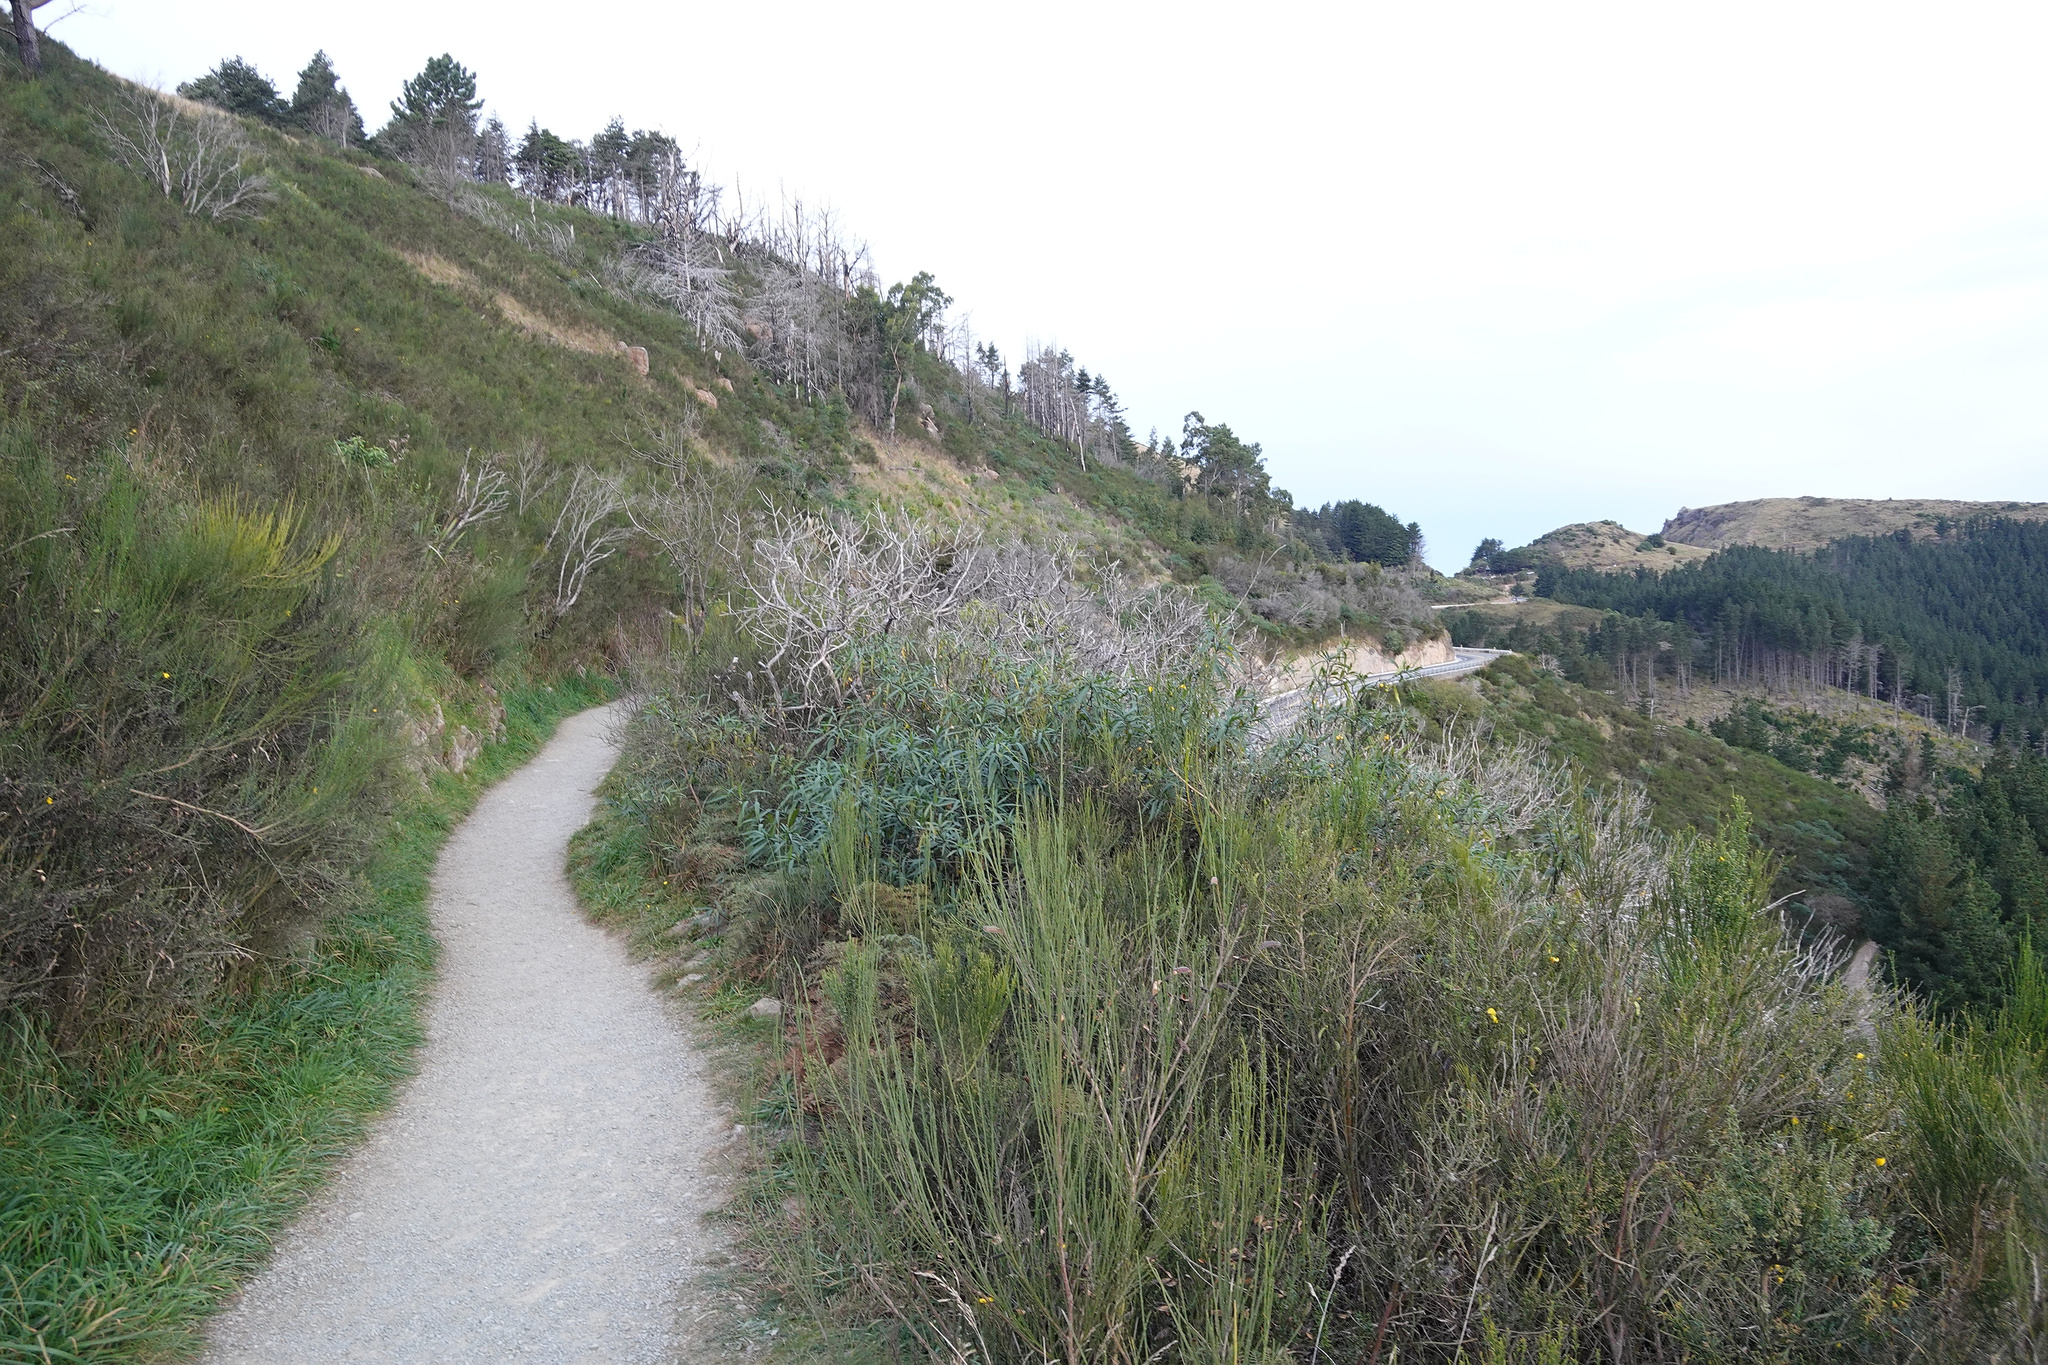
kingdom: Plantae
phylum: Tracheophyta
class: Magnoliopsida
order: Solanales
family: Solanaceae
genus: Solanum
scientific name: Solanum
